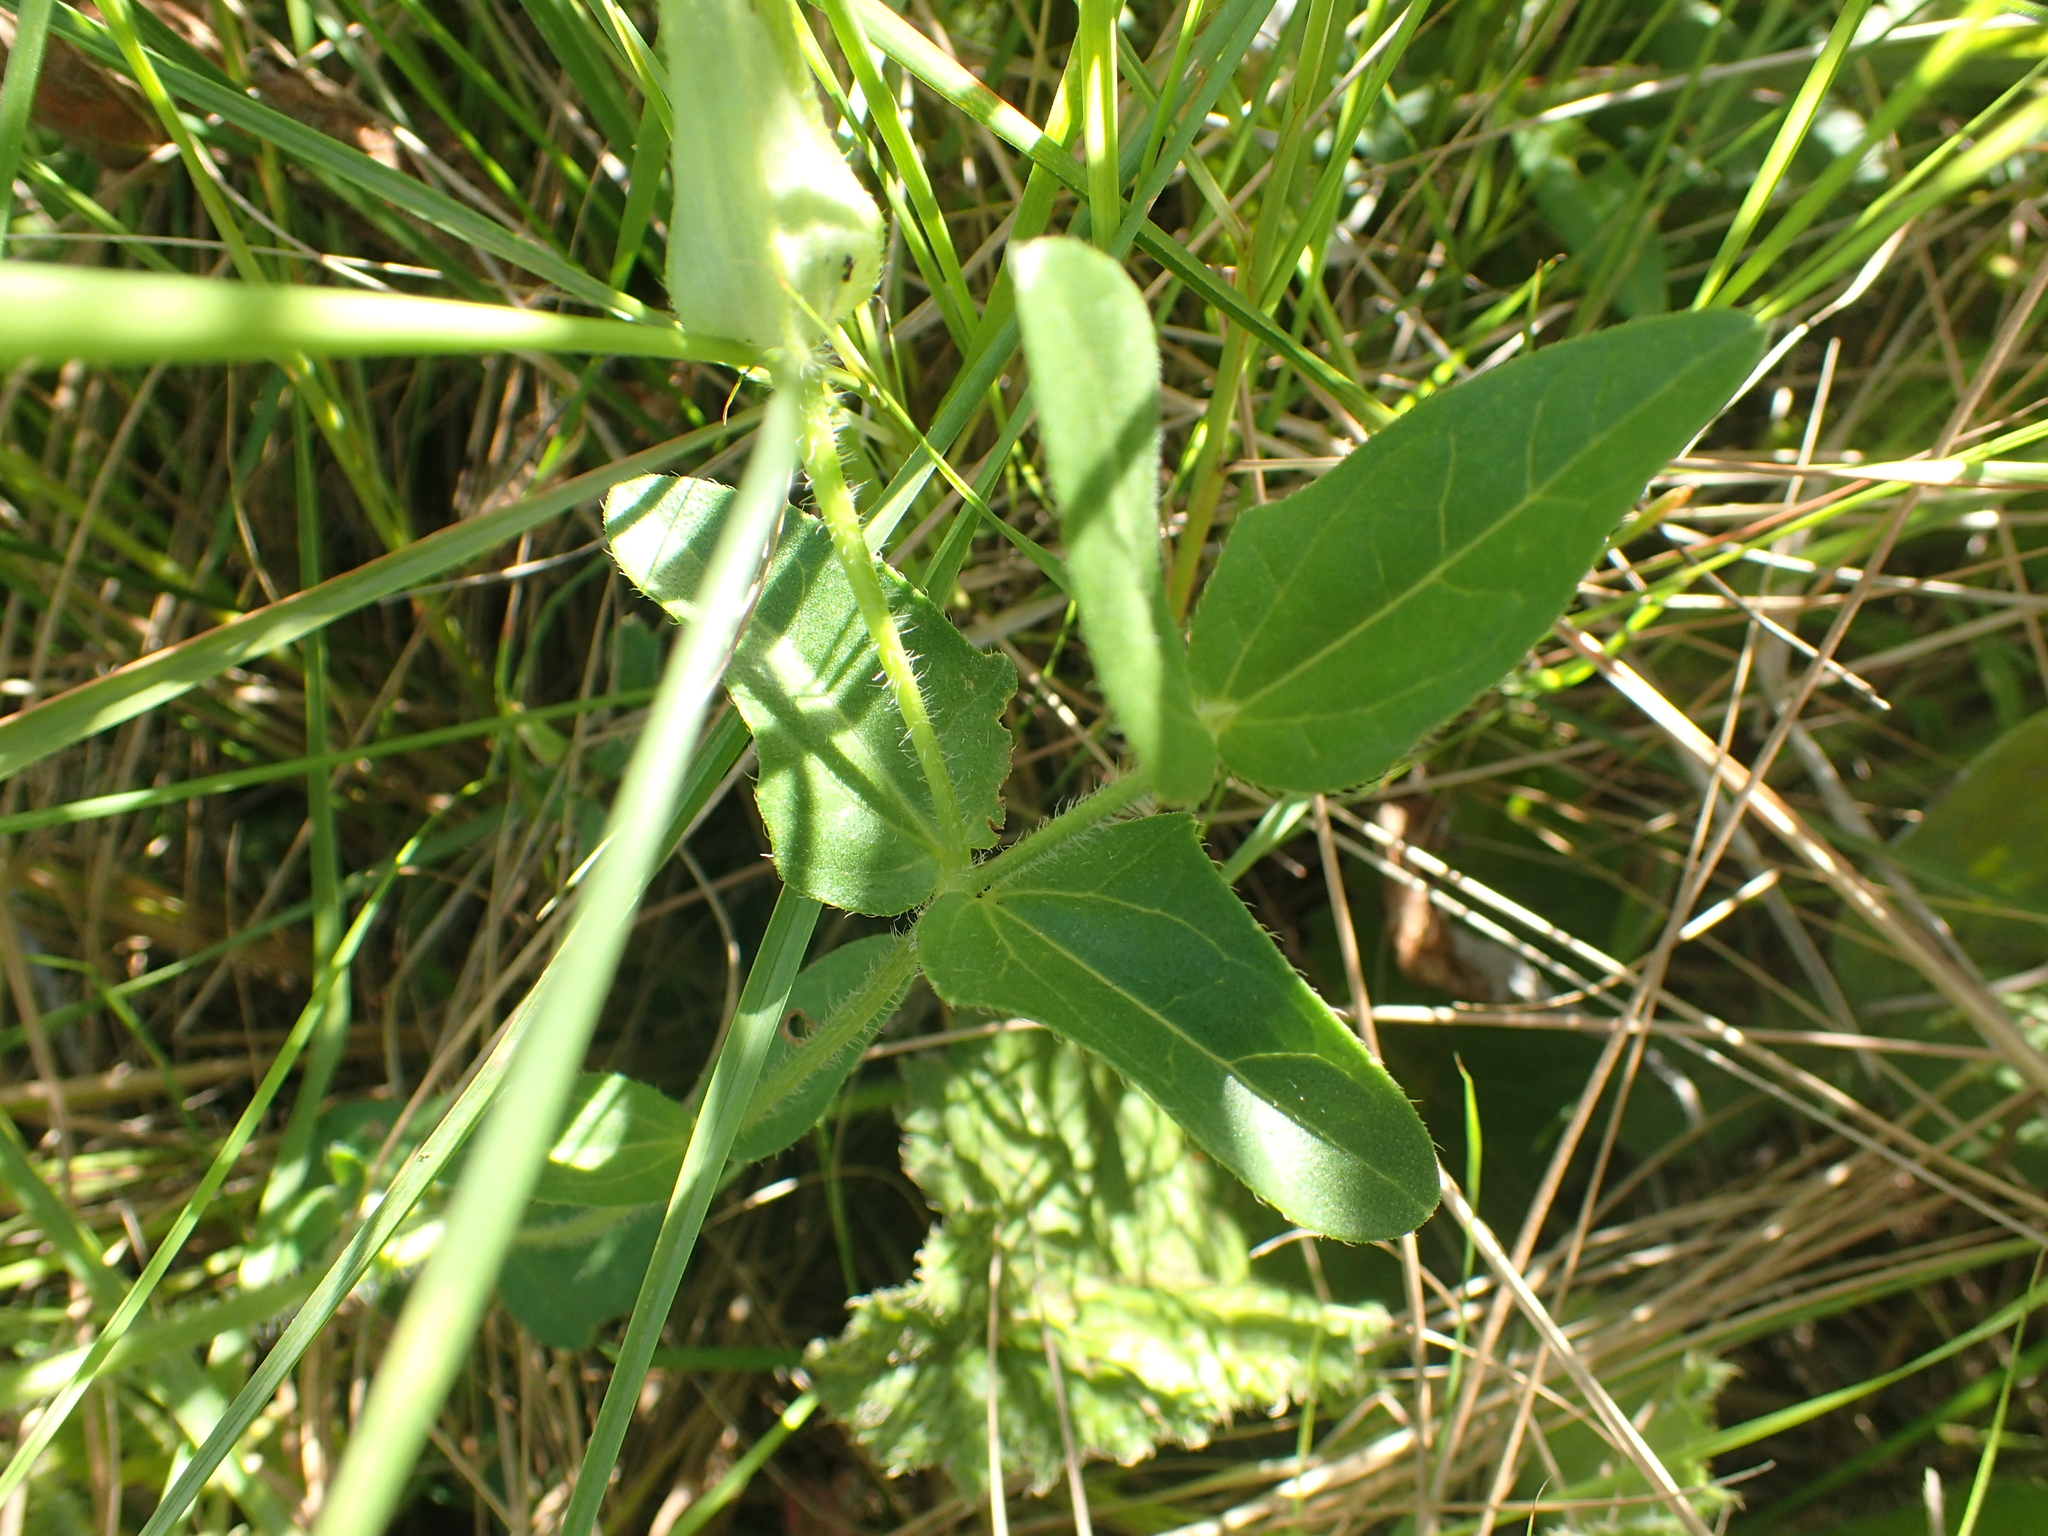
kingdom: Plantae
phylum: Tracheophyta
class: Magnoliopsida
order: Lamiales
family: Acanthaceae
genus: Thunbergia
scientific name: Thunbergia atriplicifolia
